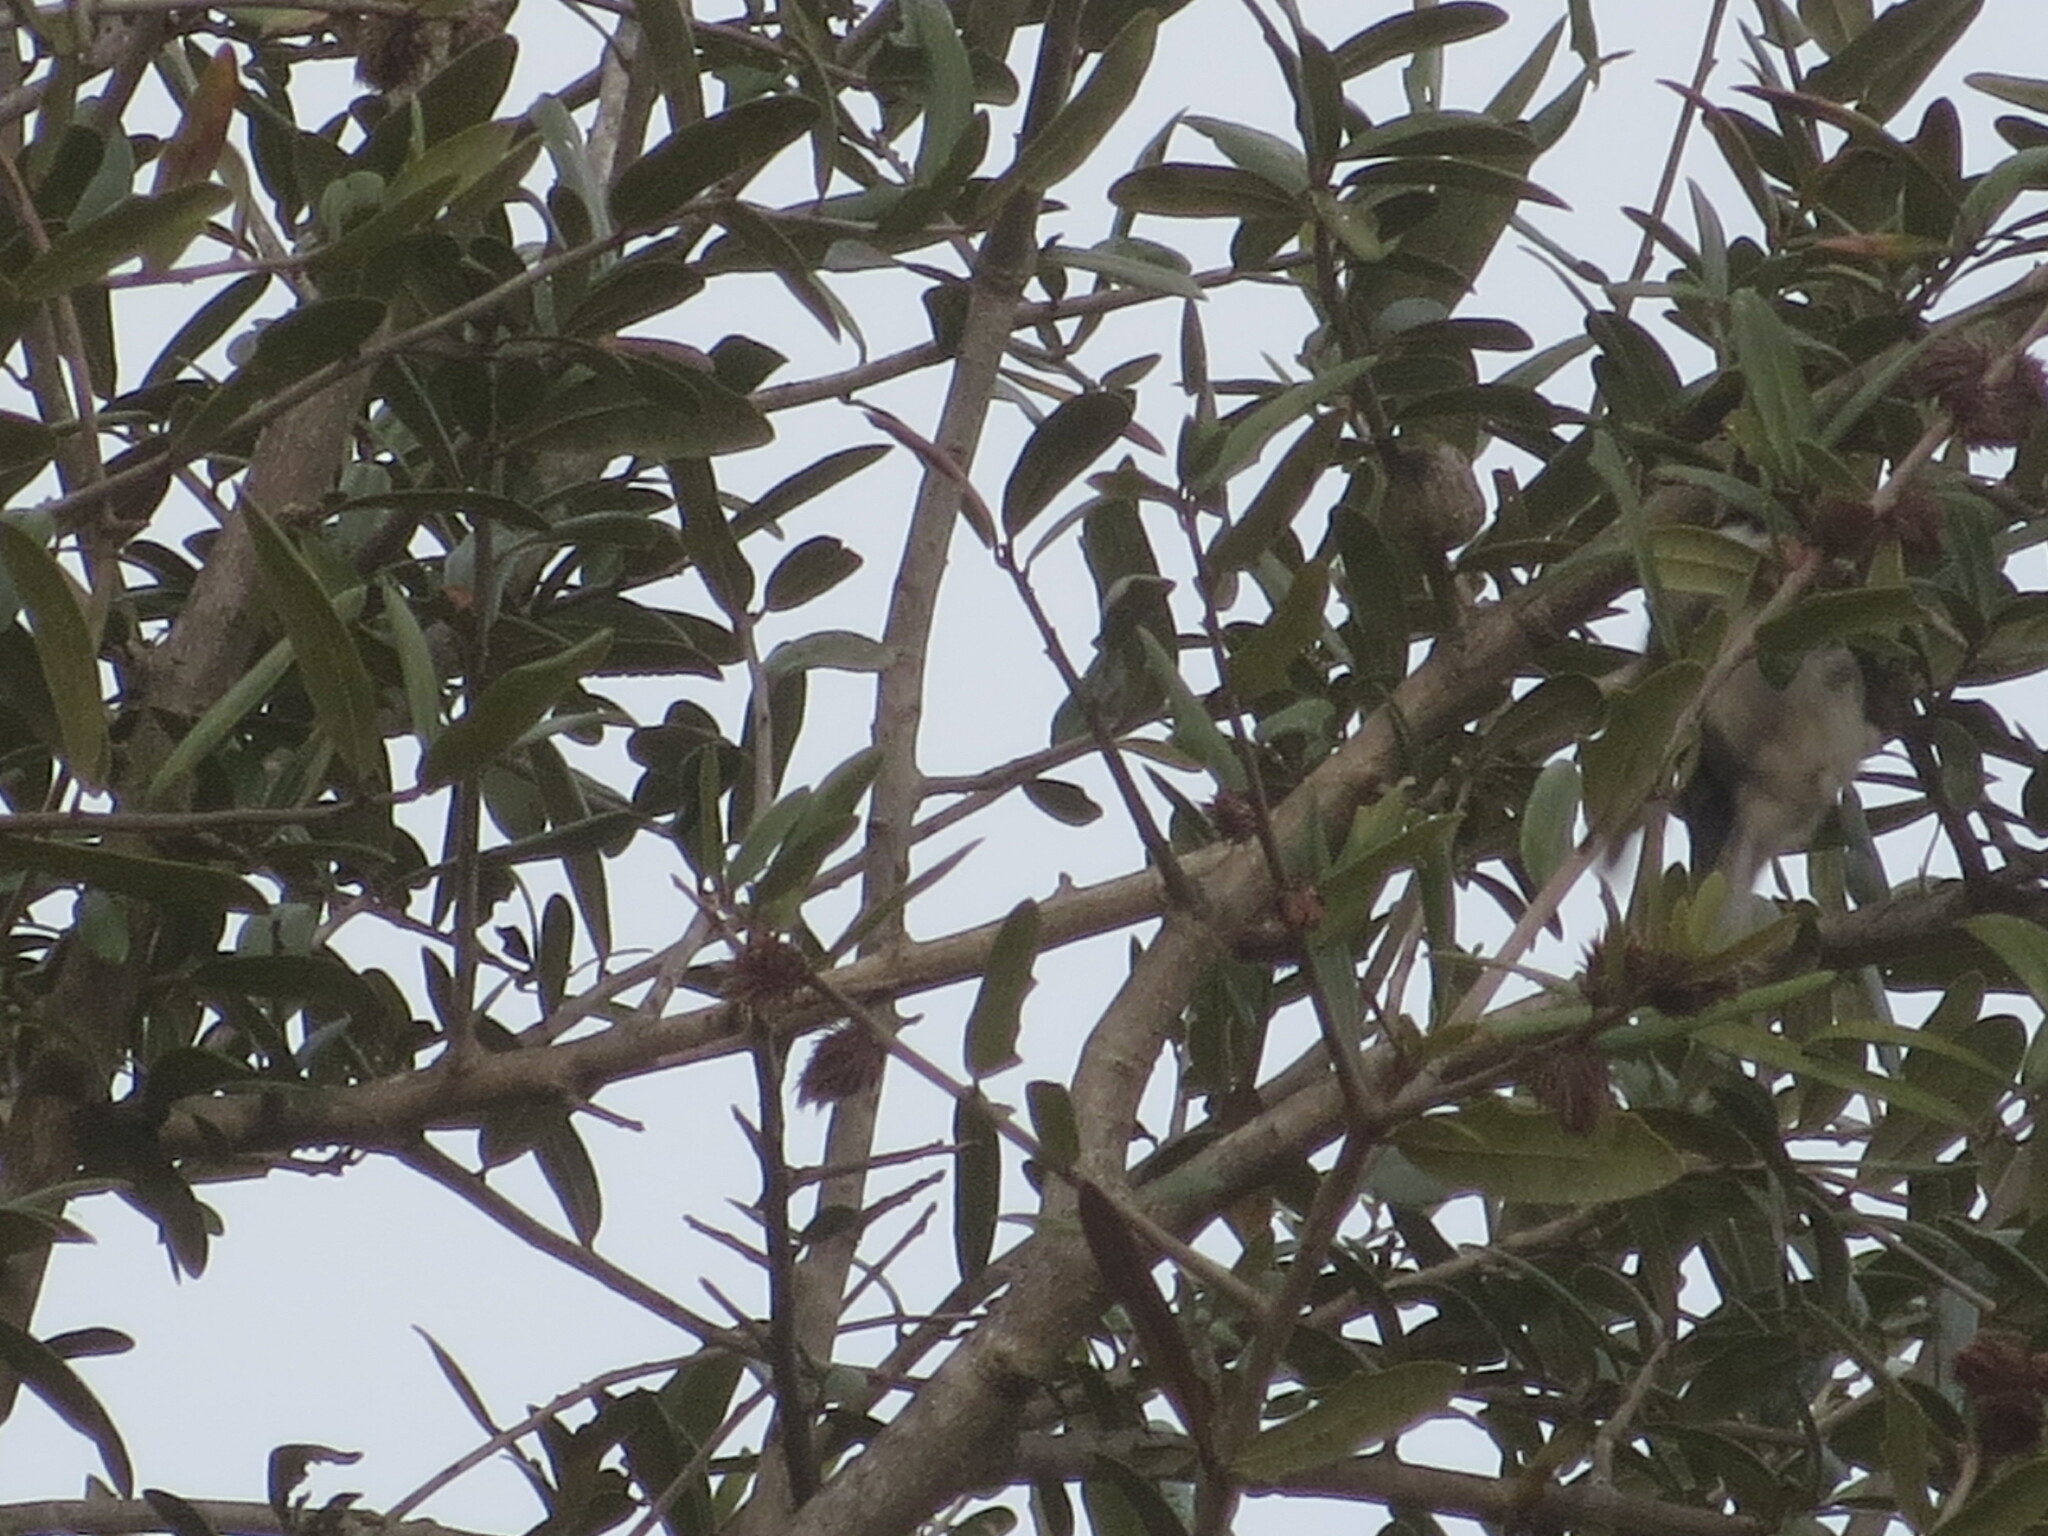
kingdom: Animalia
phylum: Chordata
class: Aves
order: Passeriformes
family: Paridae
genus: Poecile
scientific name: Poecile carolinensis
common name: Carolina chickadee
